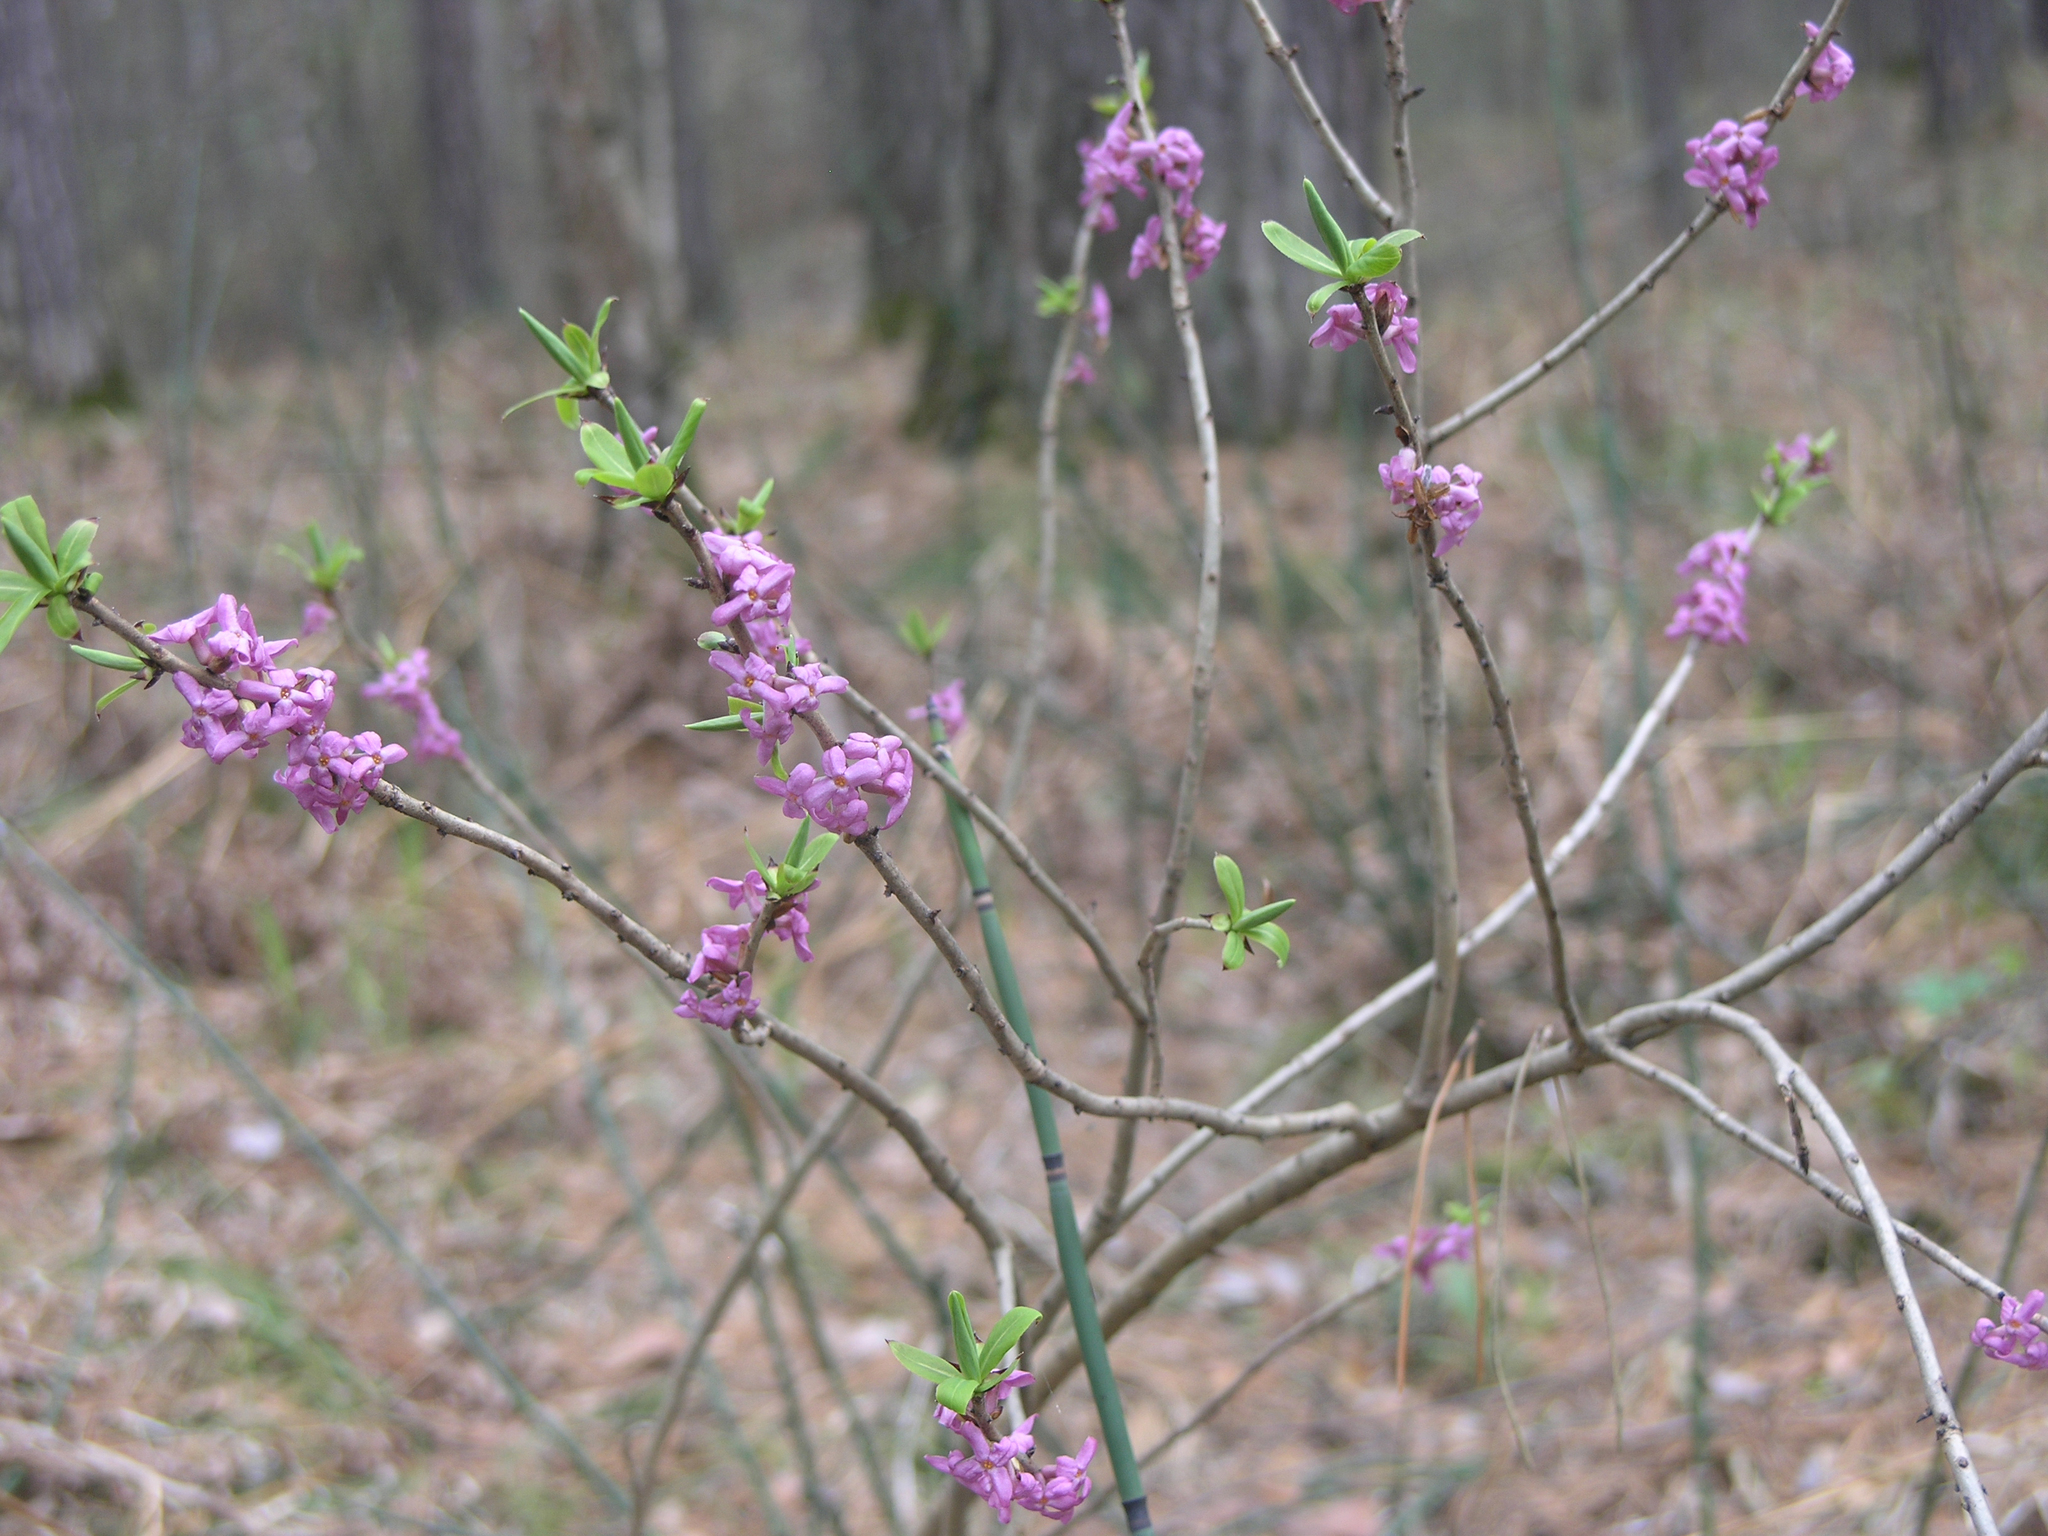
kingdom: Plantae
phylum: Tracheophyta
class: Magnoliopsida
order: Malvales
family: Thymelaeaceae
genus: Daphne
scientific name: Daphne mezereum
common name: Mezereon
